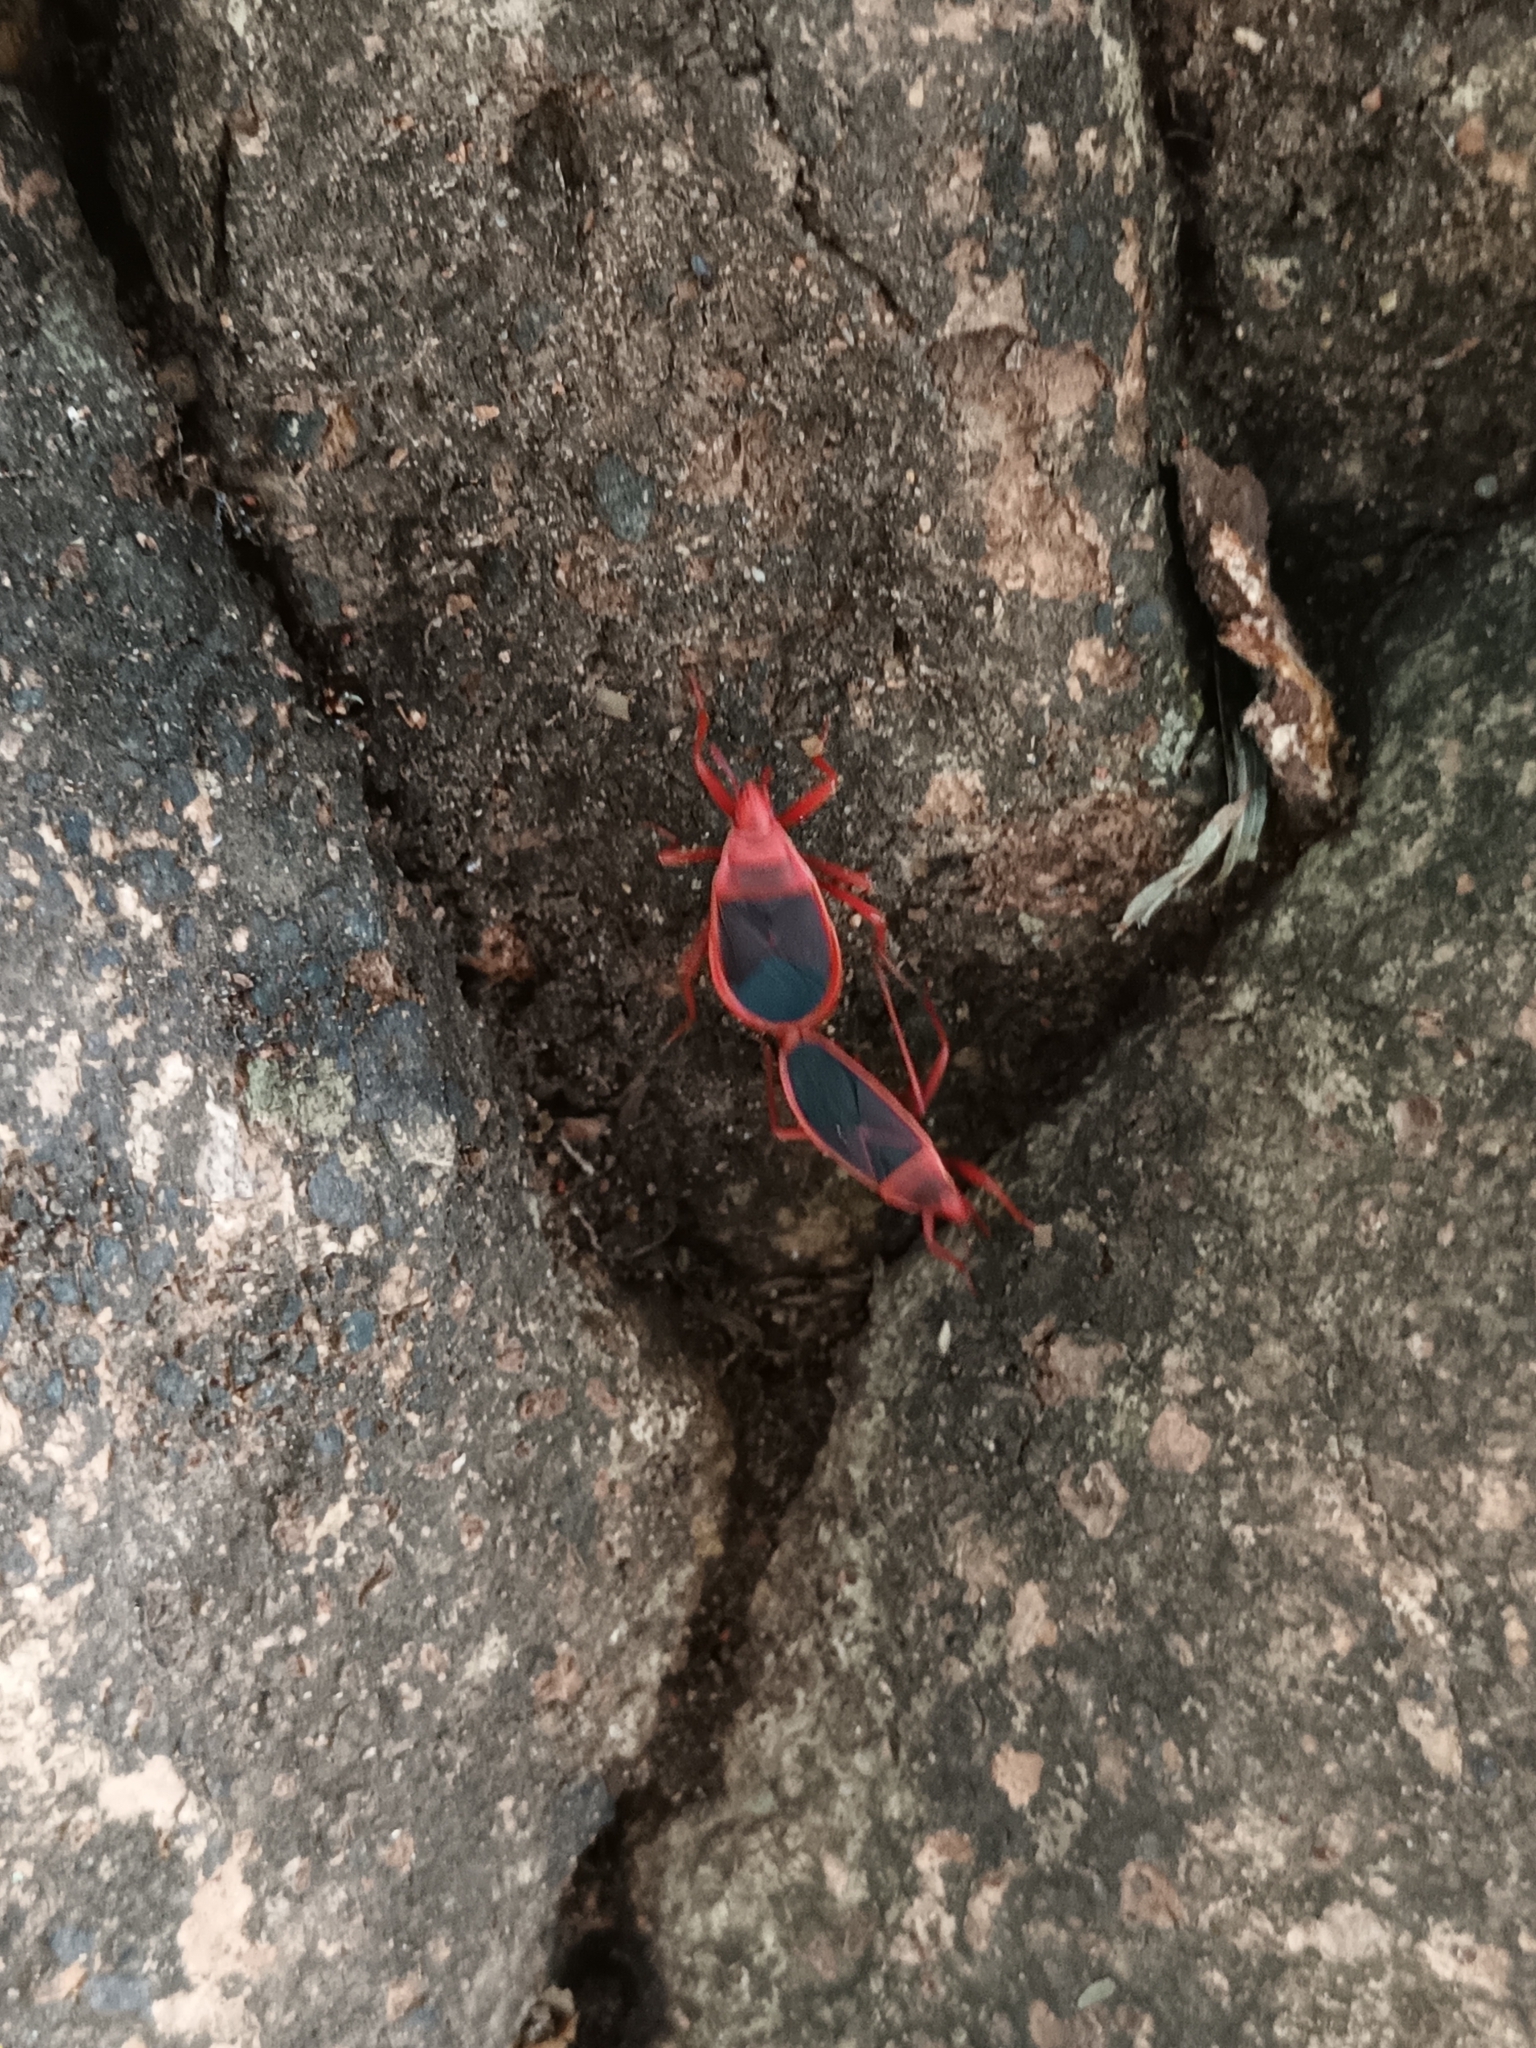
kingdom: Animalia
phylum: Arthropoda
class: Insecta
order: Hemiptera
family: Pyrrhocoridae
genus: Probergrothius
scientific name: Probergrothius
